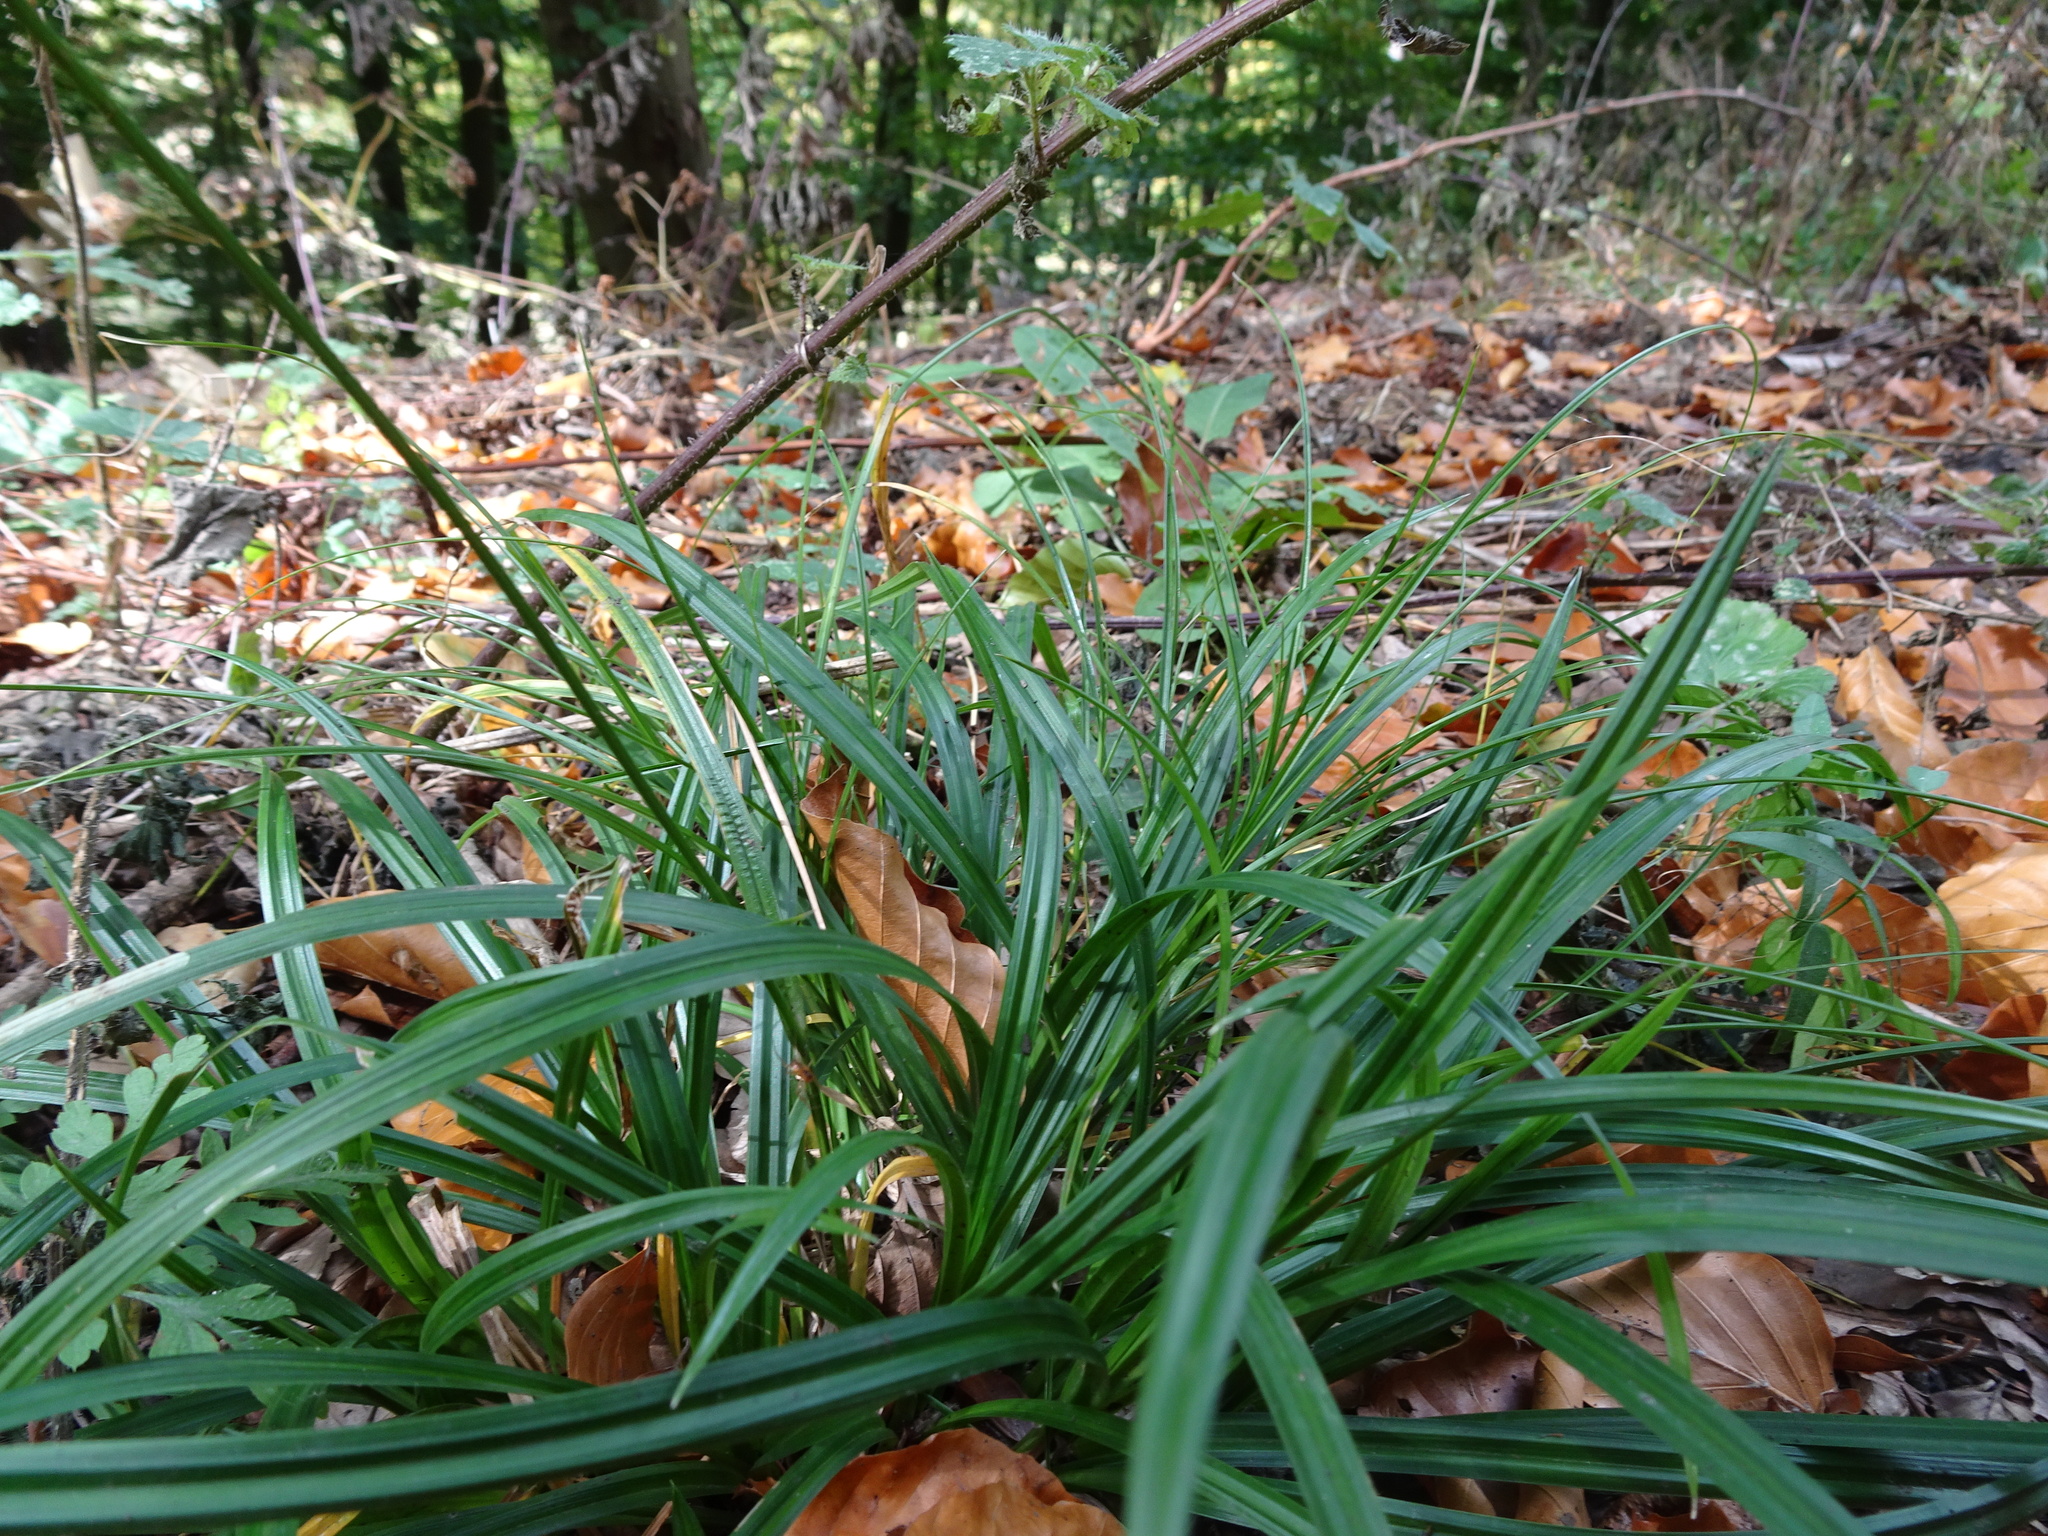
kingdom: Plantae
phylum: Tracheophyta
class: Liliopsida
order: Poales
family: Cyperaceae
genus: Carex
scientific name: Carex sylvatica
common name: Wood-sedge
